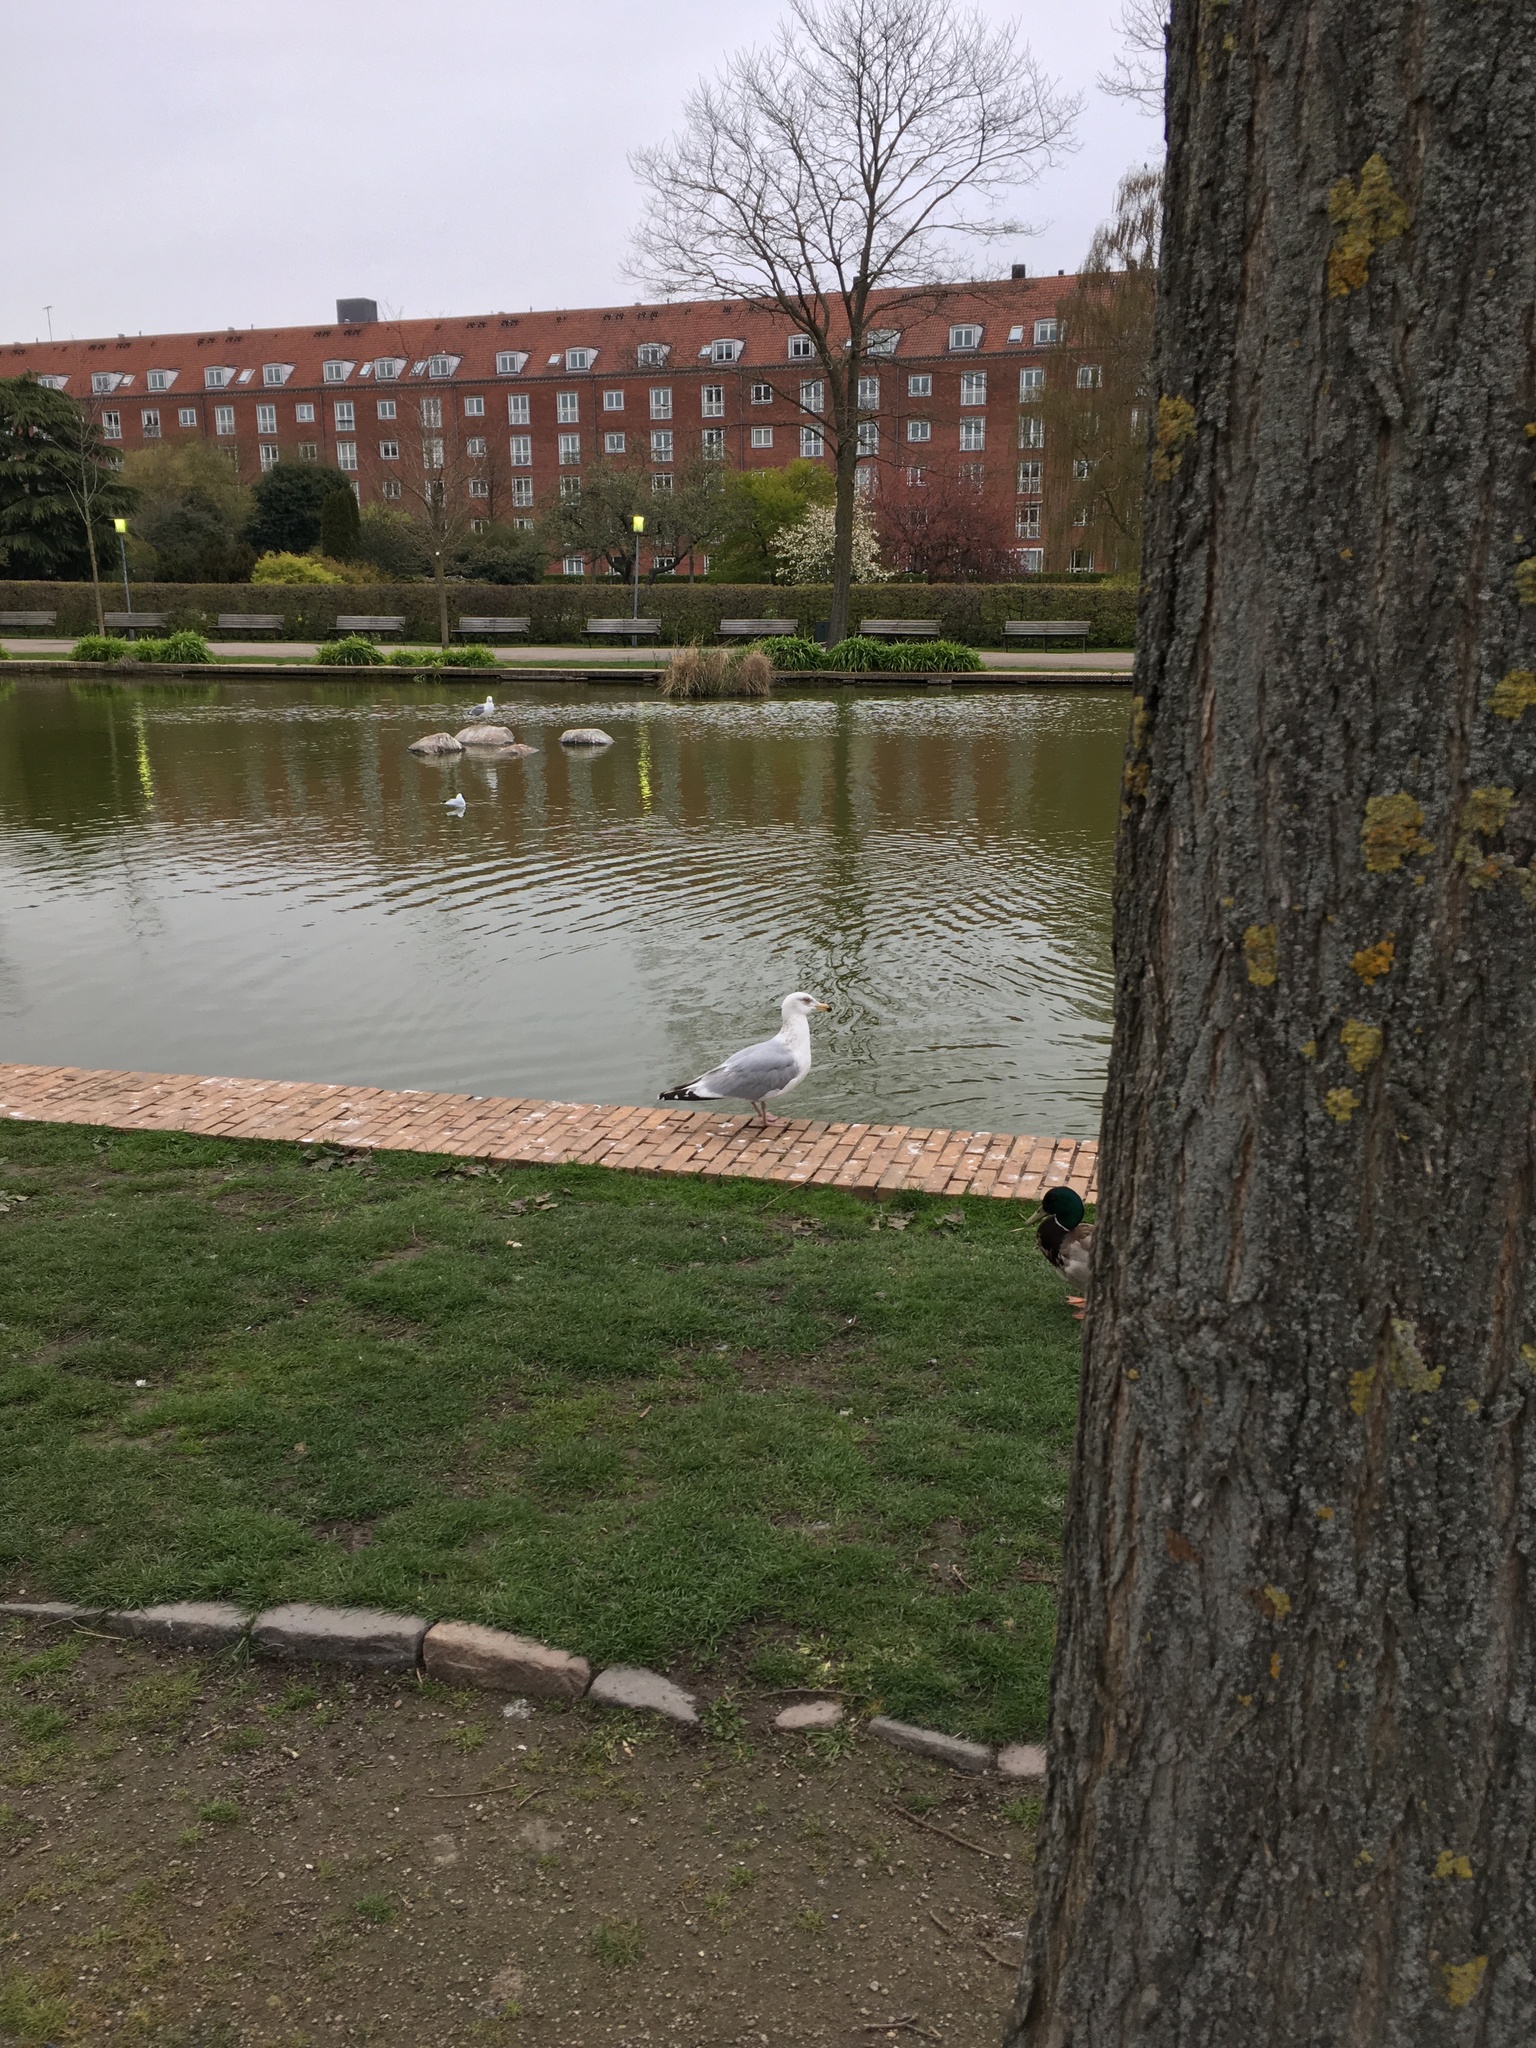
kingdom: Animalia
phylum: Chordata
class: Aves
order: Charadriiformes
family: Laridae
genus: Larus
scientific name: Larus argentatus
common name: Herring gull
